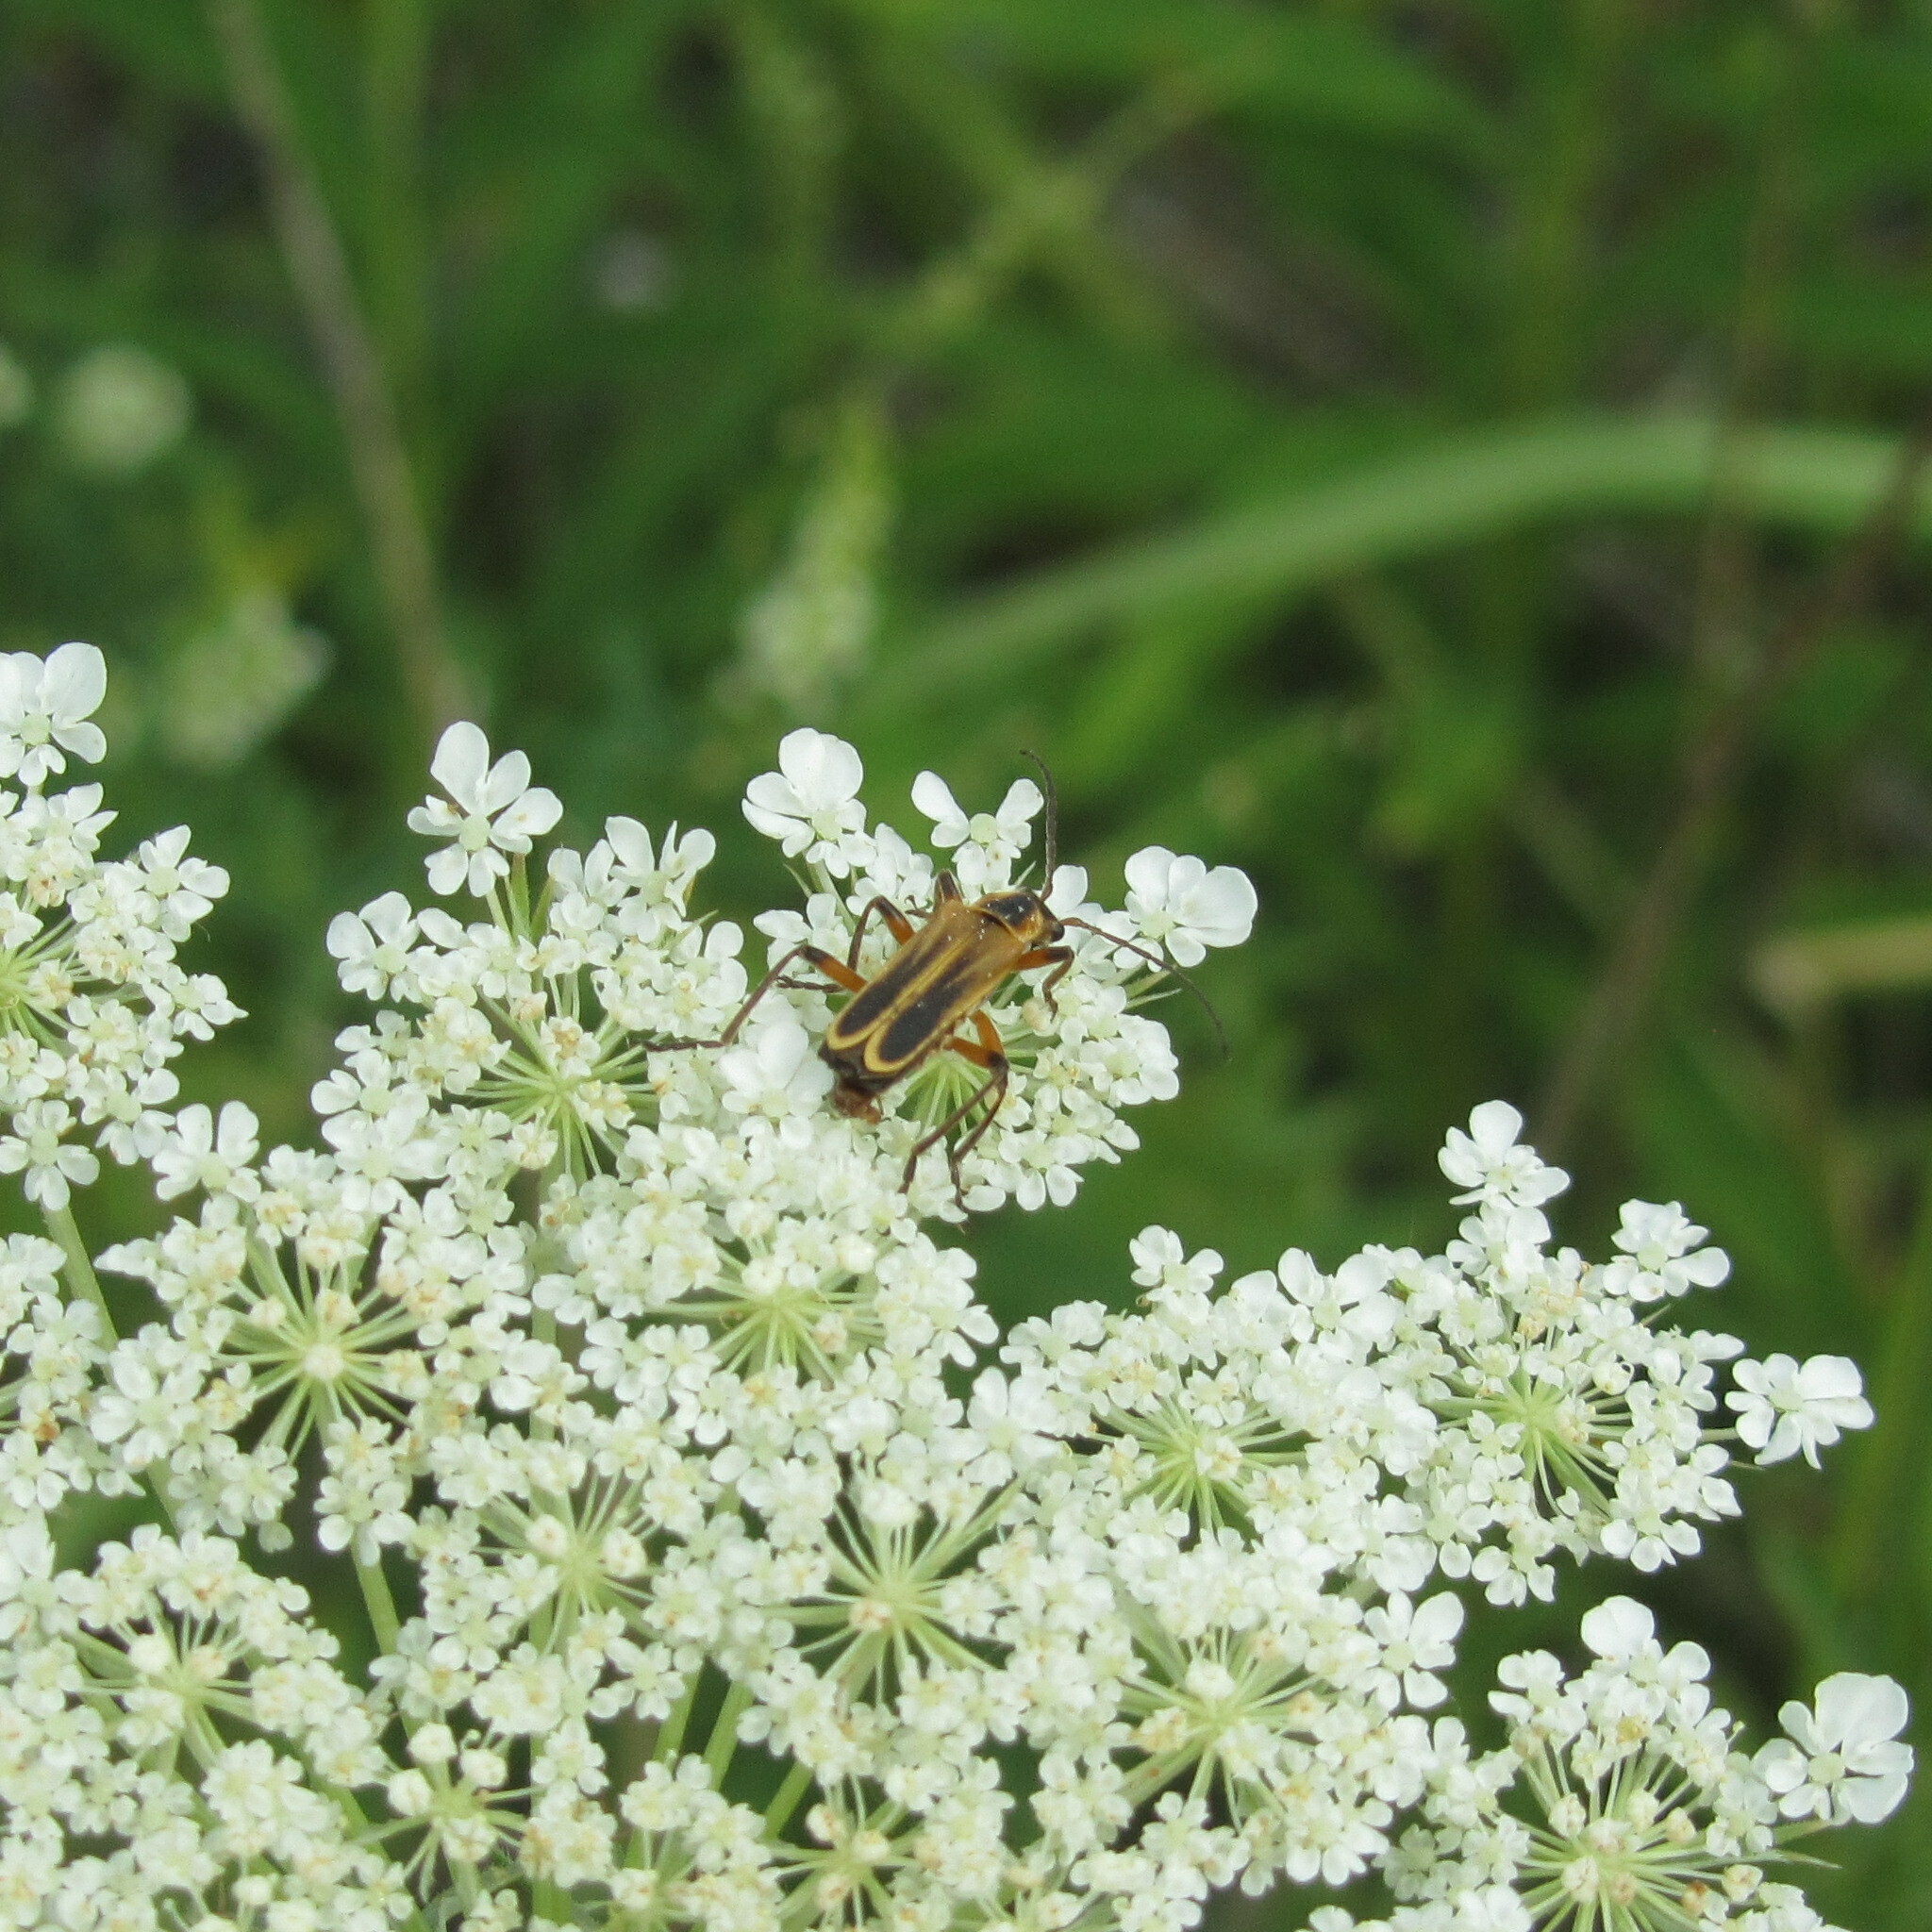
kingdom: Animalia
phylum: Arthropoda
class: Insecta
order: Coleoptera
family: Cantharidae
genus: Chauliognathus
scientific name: Chauliognathus marginatus
